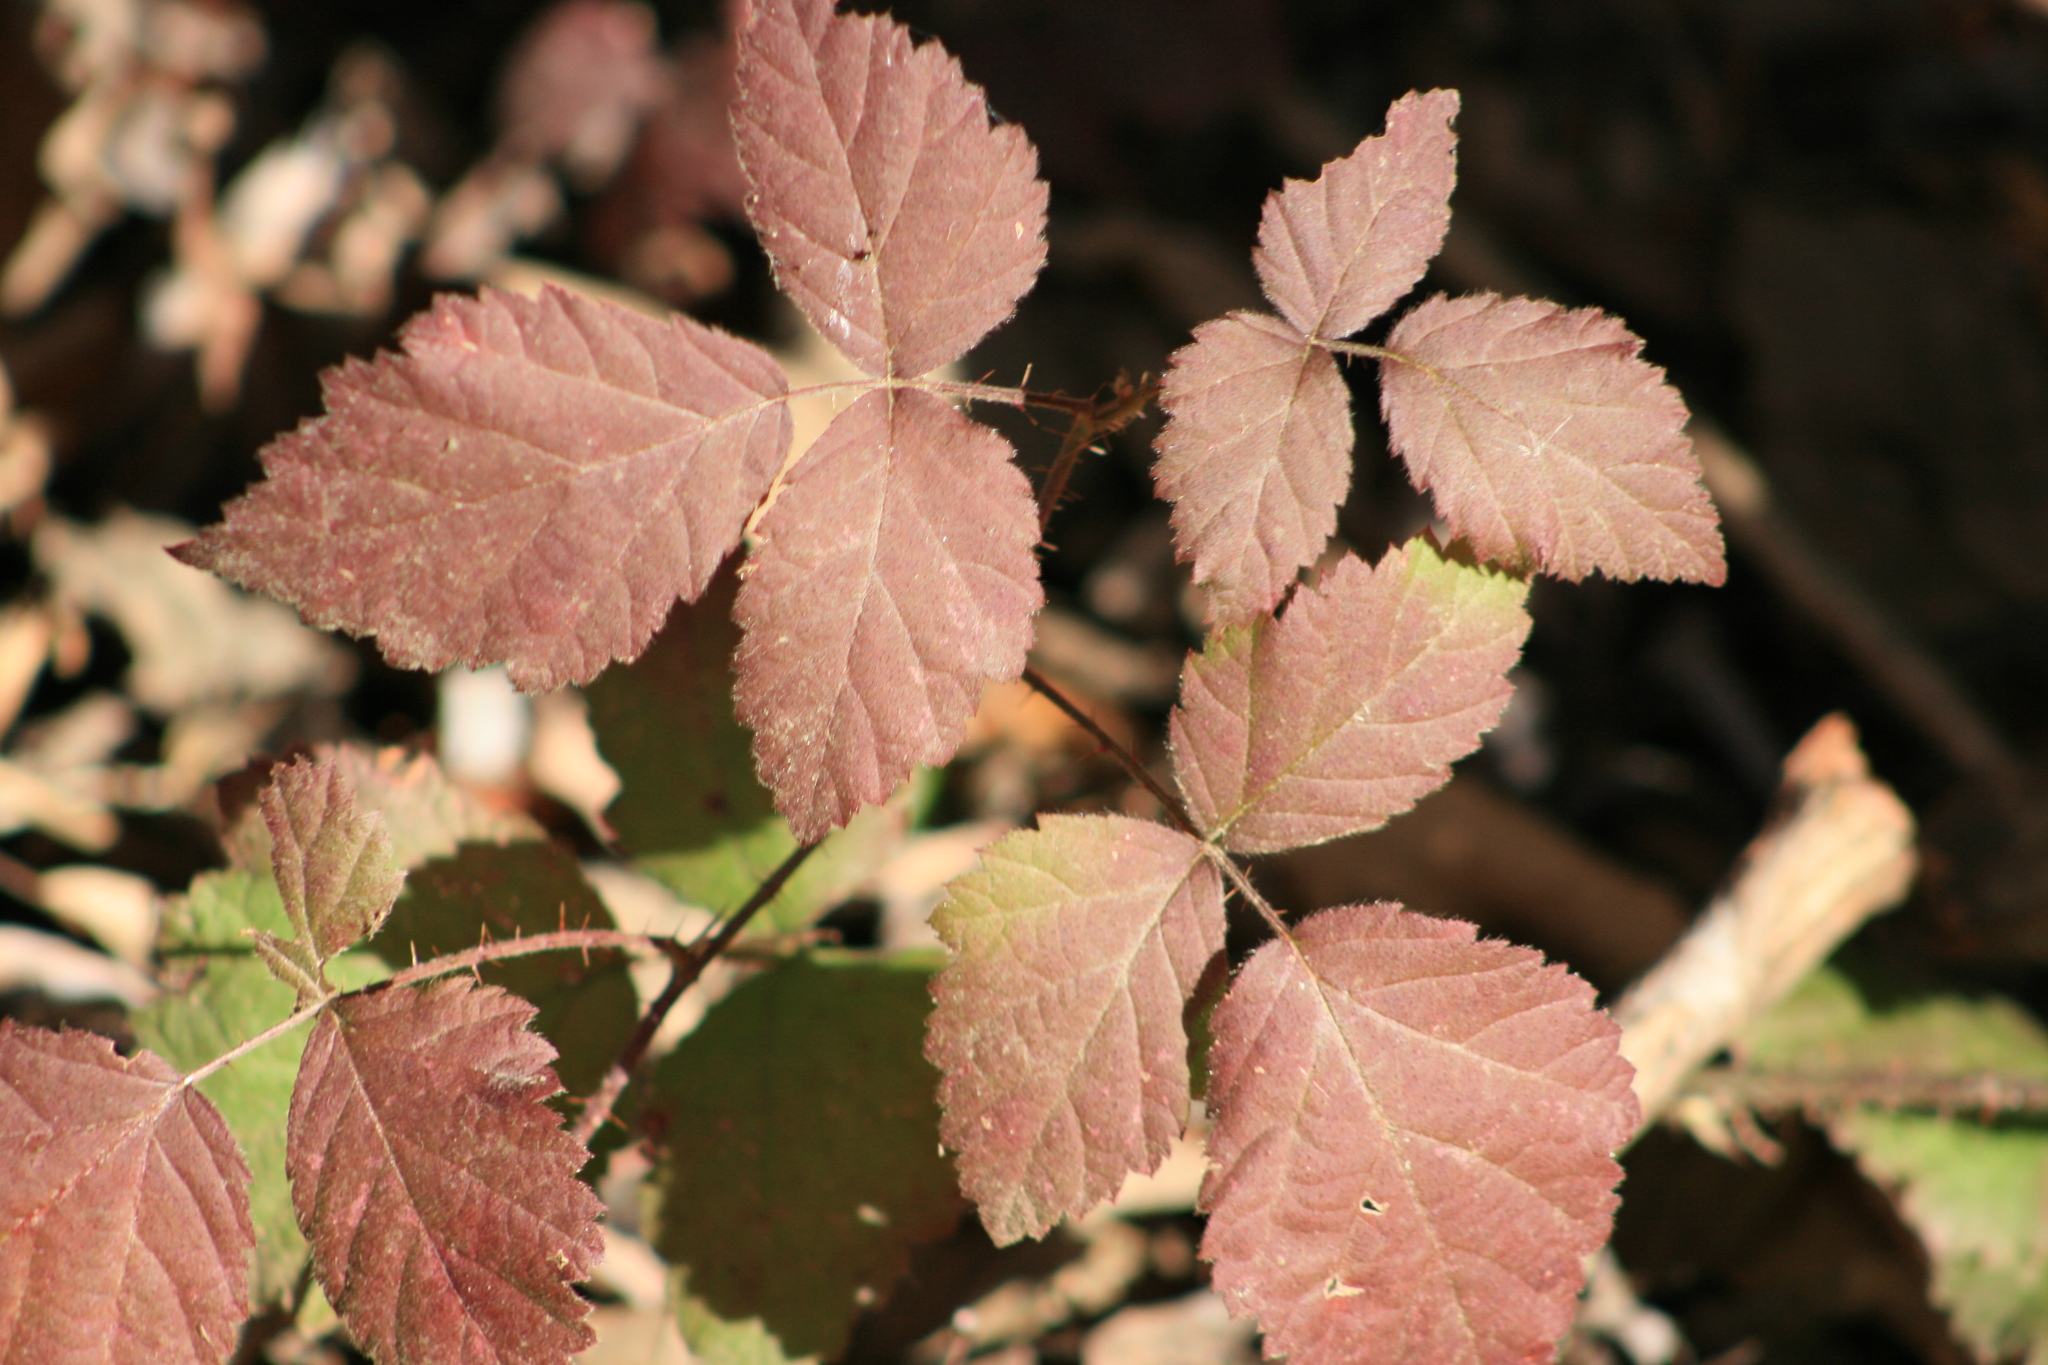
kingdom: Plantae
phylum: Tracheophyta
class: Magnoliopsida
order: Rosales
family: Rosaceae
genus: Rubus
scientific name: Rubus ursinus
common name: Pacific blackberry
